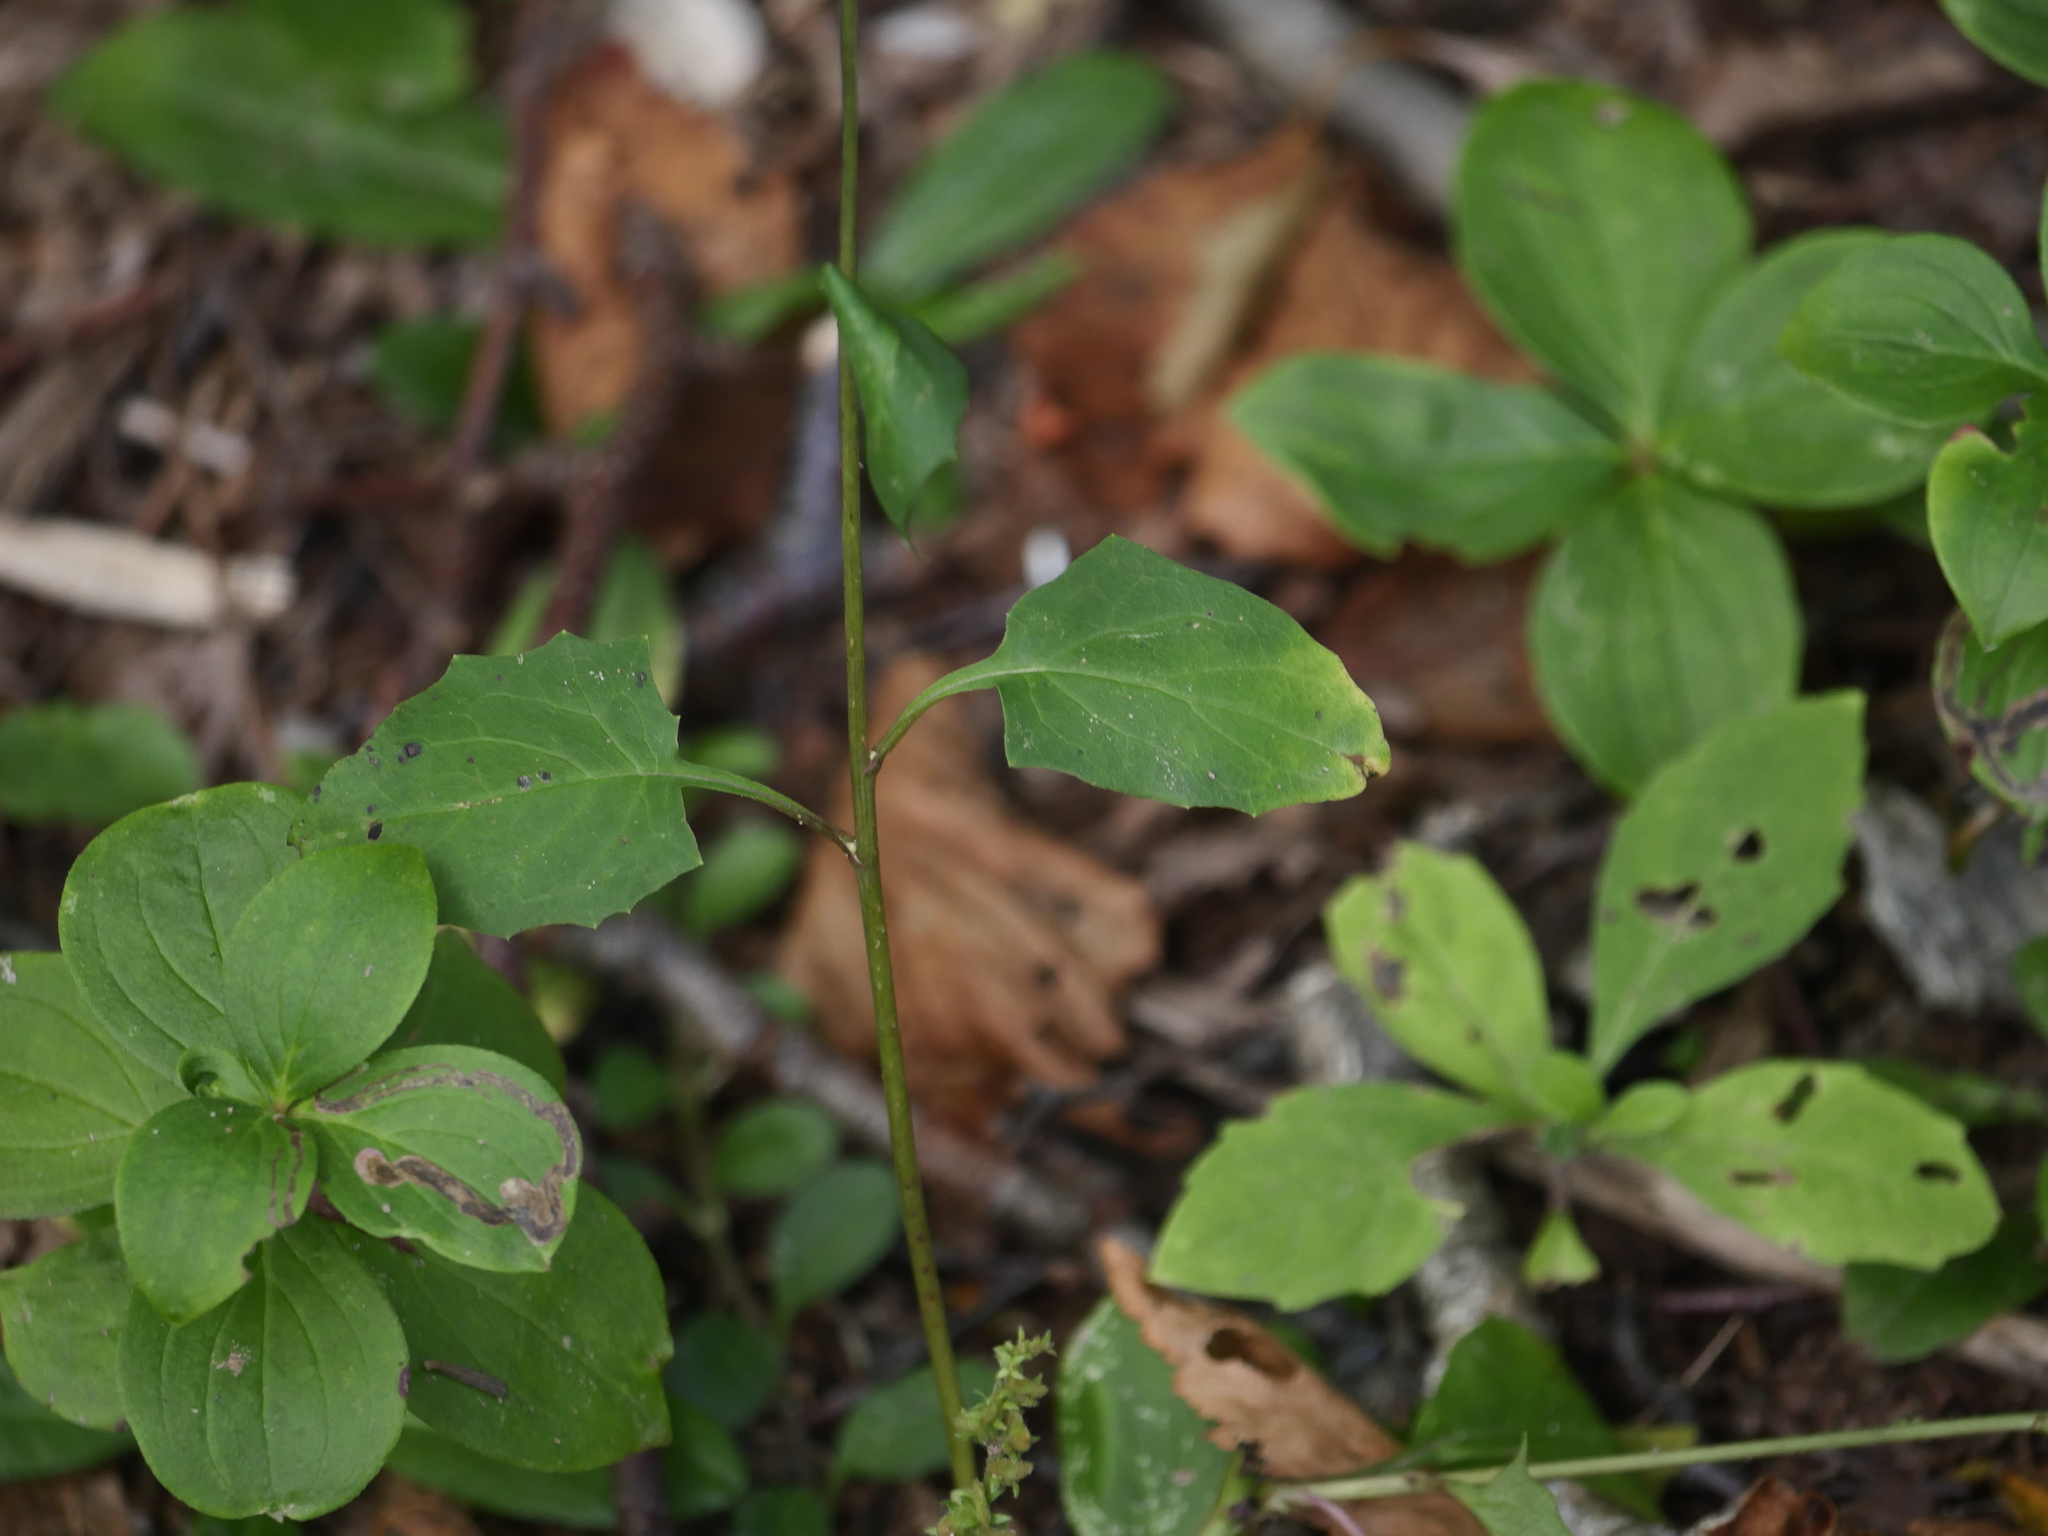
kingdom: Plantae
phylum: Tracheophyta
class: Magnoliopsida
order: Asterales
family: Asteraceae
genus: Nabalus
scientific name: Nabalus trifoliolatus
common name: Gall-of-the-earth
